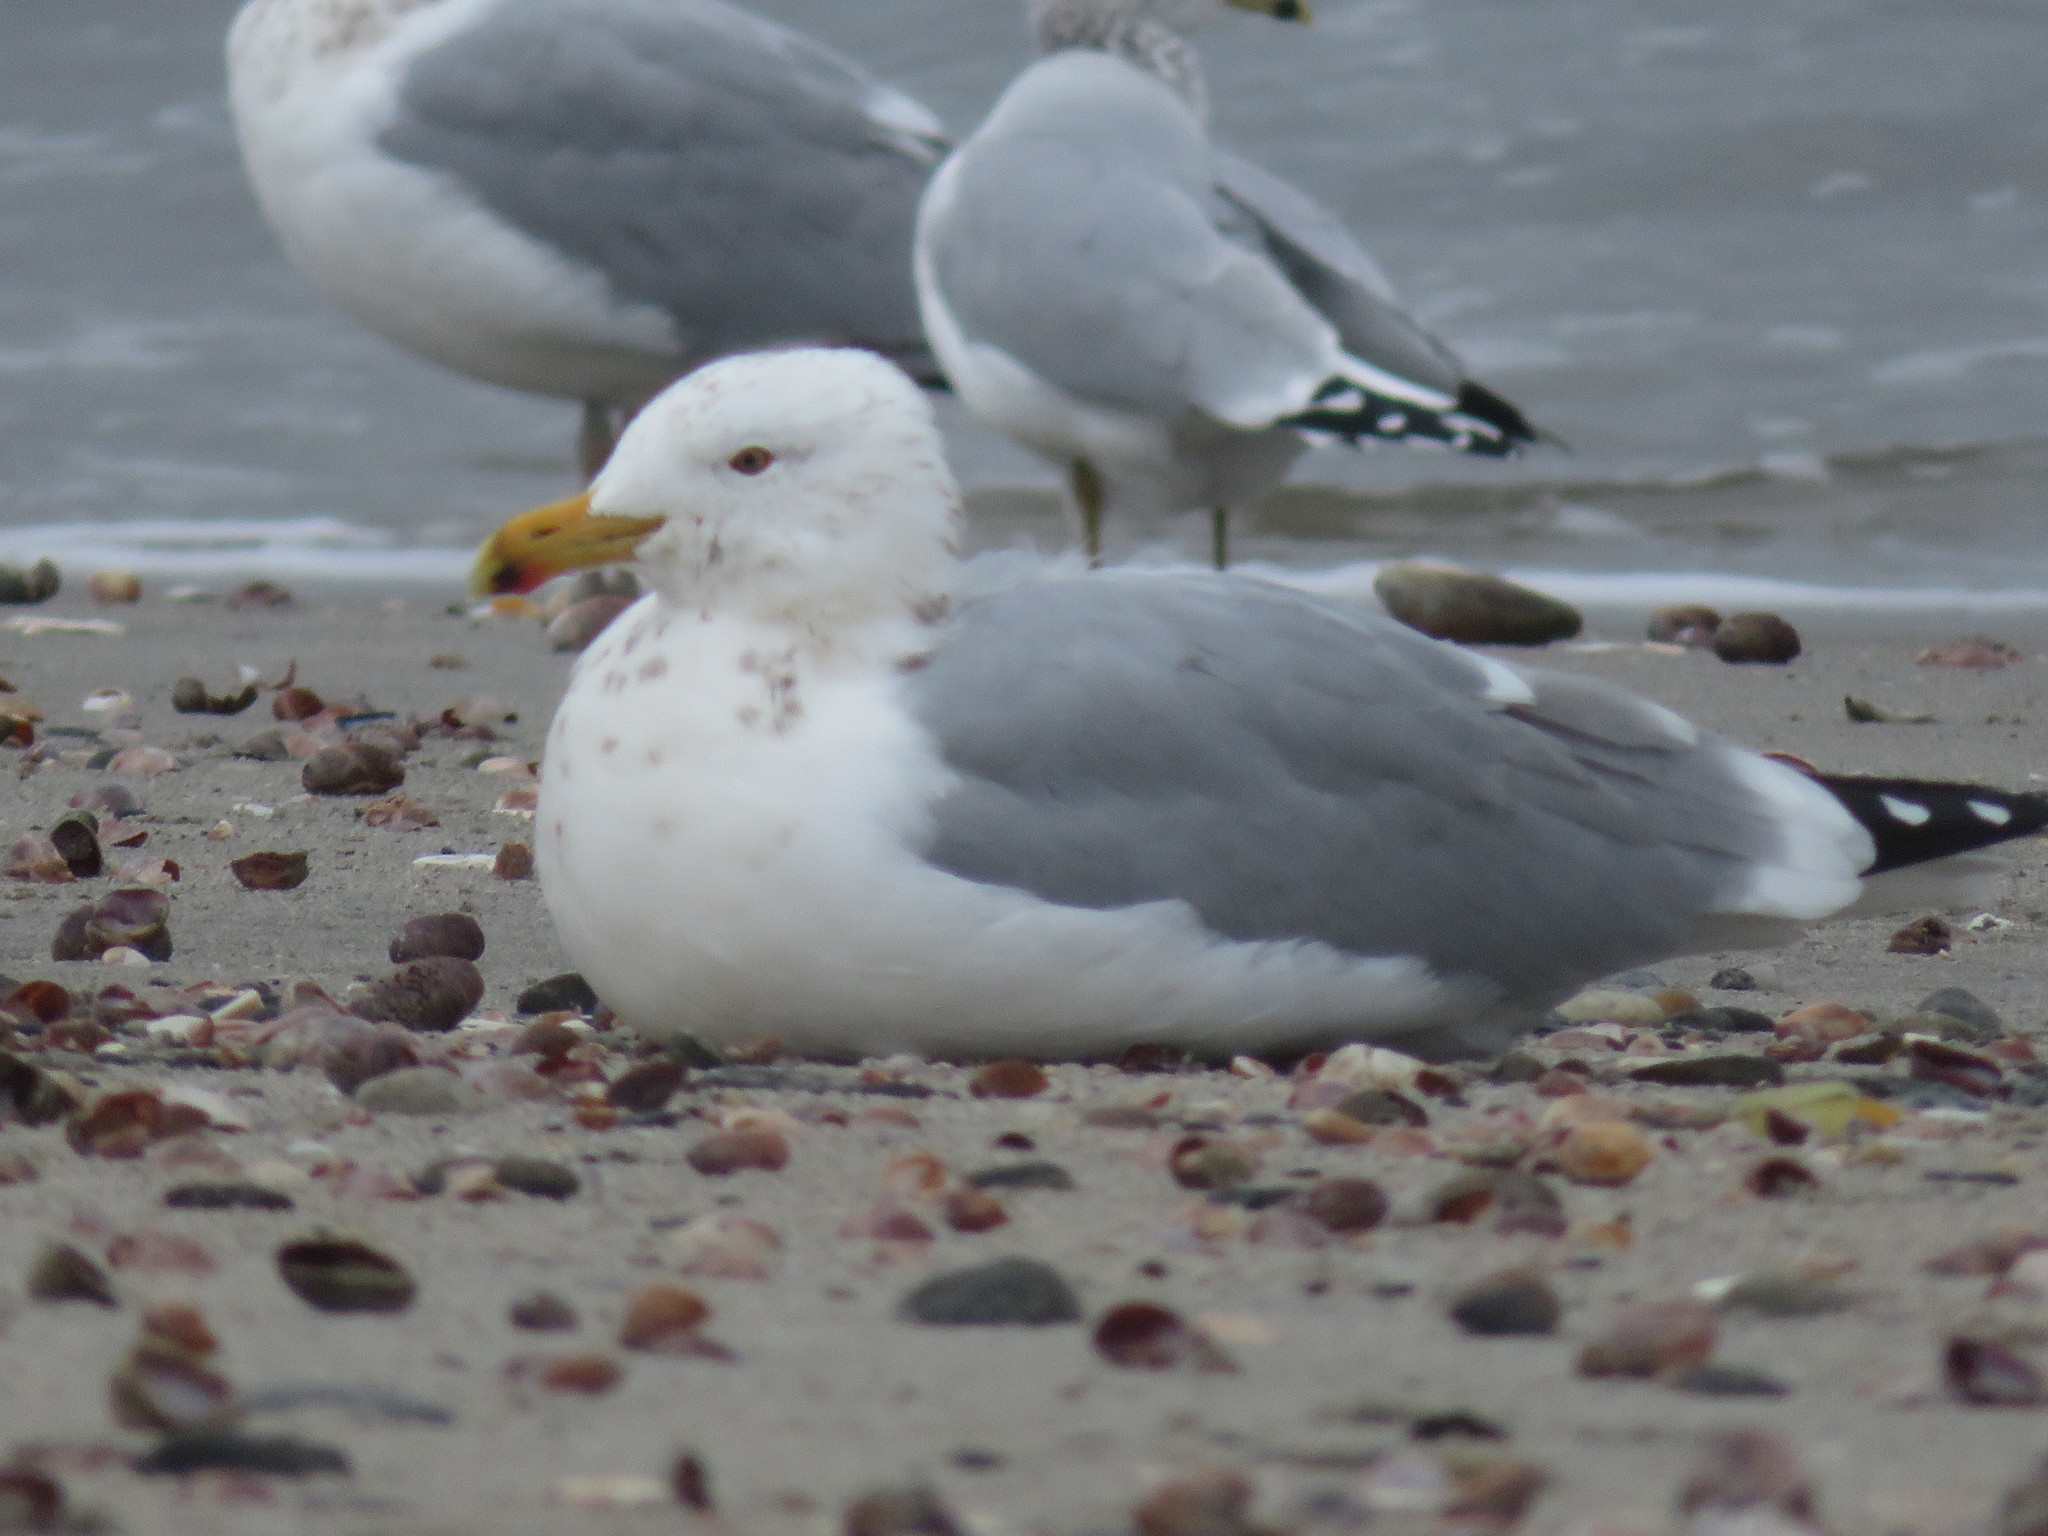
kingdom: Animalia
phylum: Chordata
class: Aves
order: Charadriiformes
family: Laridae
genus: Larus
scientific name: Larus smithsonianus
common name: American herring gull
